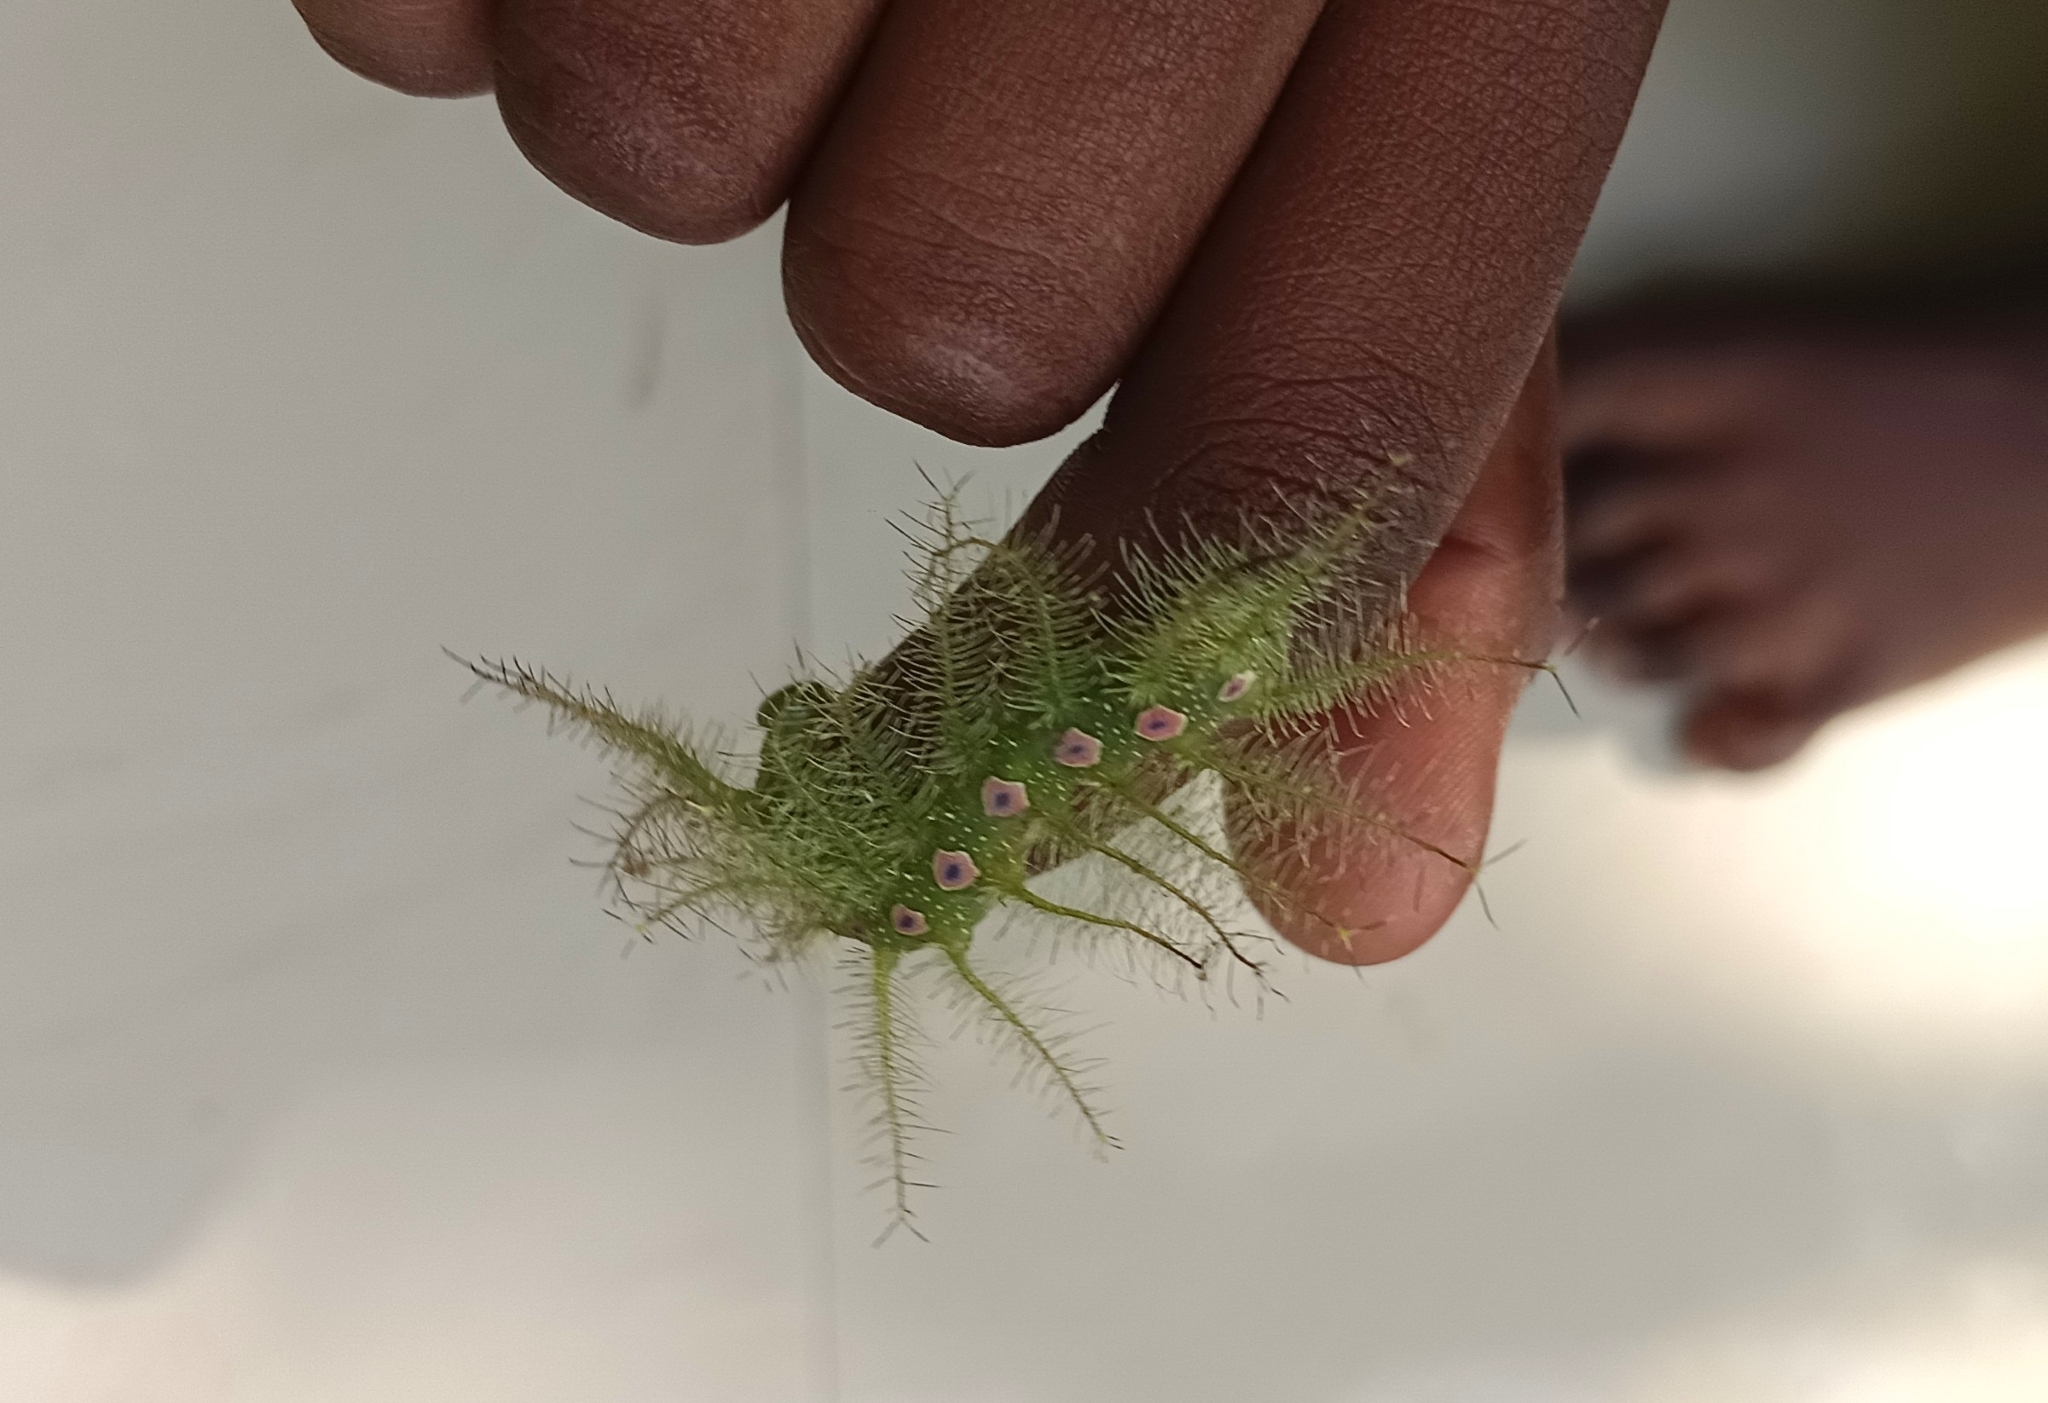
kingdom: Animalia
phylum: Arthropoda
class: Insecta
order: Lepidoptera
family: Nymphalidae
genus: Tanaecia
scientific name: Tanaecia lepidea
